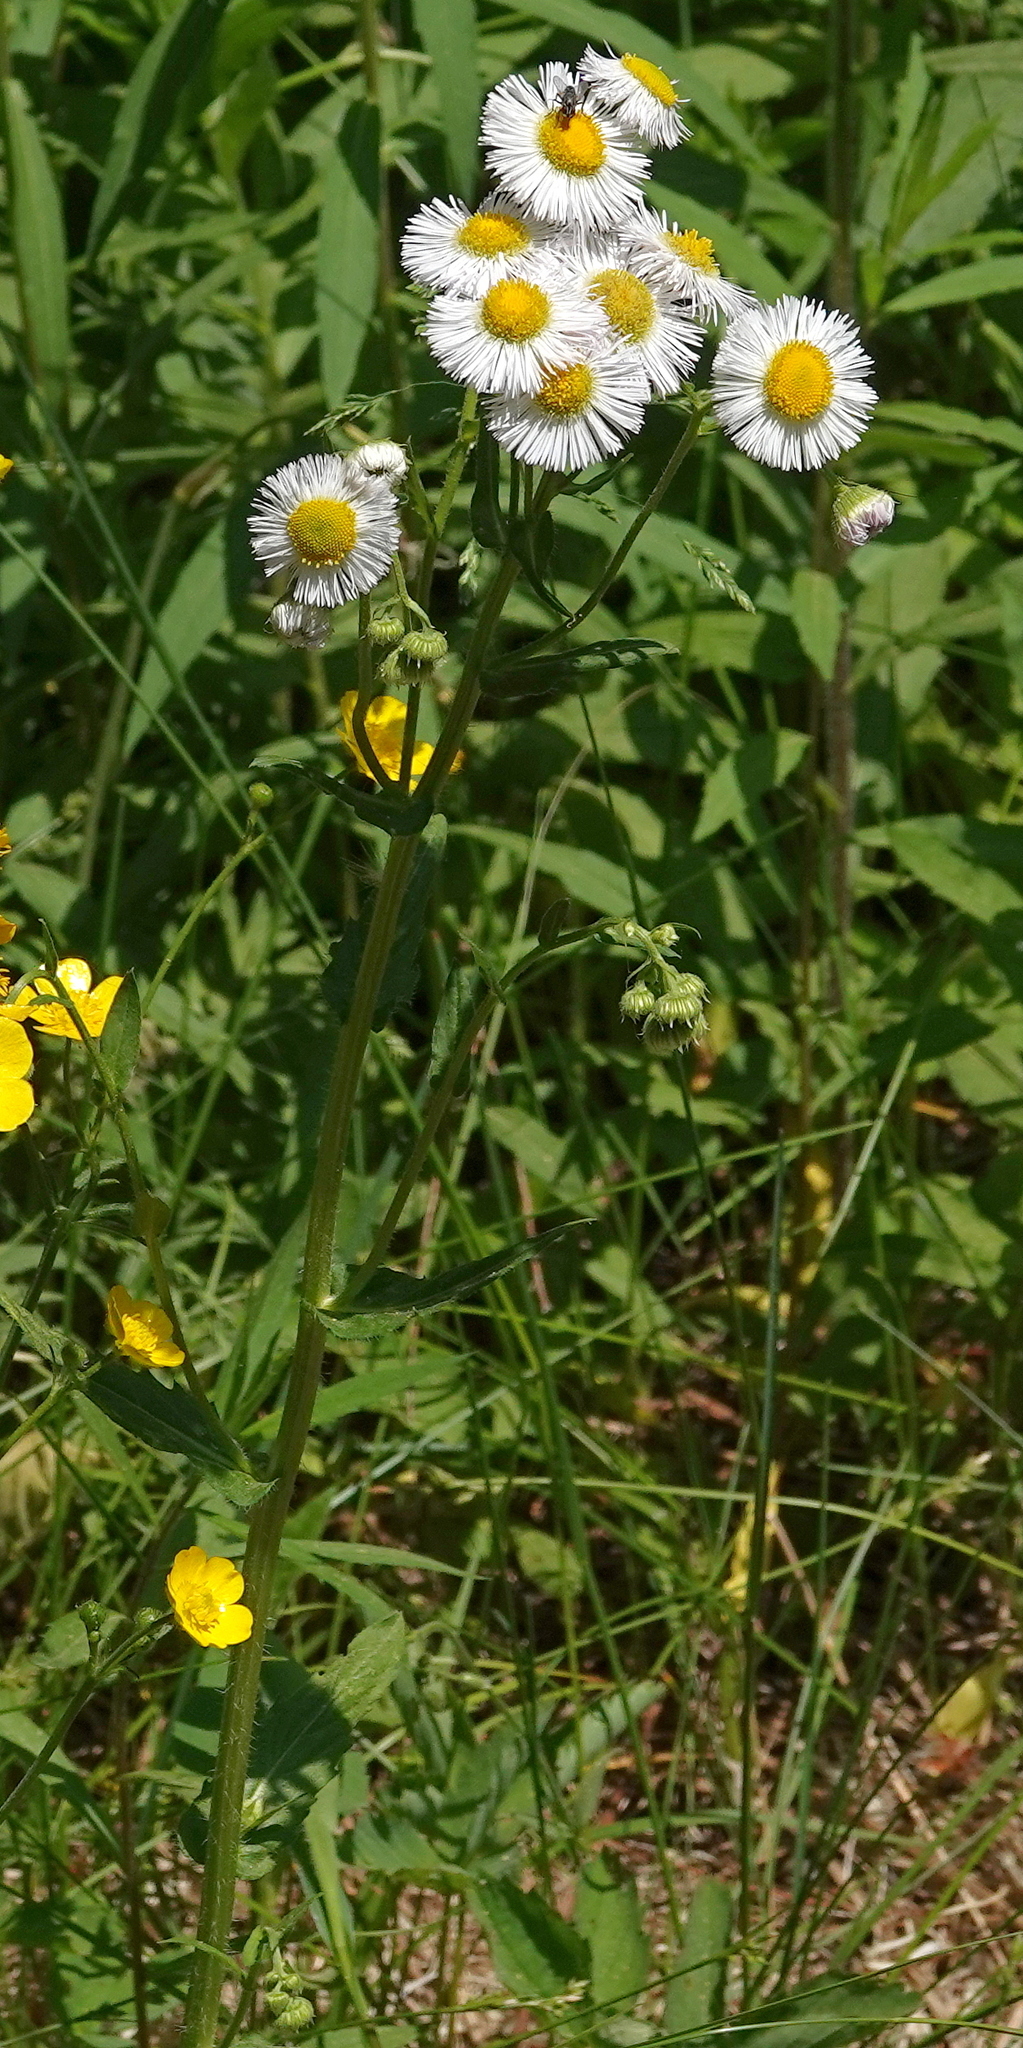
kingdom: Plantae
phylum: Tracheophyta
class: Magnoliopsida
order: Asterales
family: Asteraceae
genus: Erigeron
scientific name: Erigeron philadelphicus
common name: Robin's-plantain
